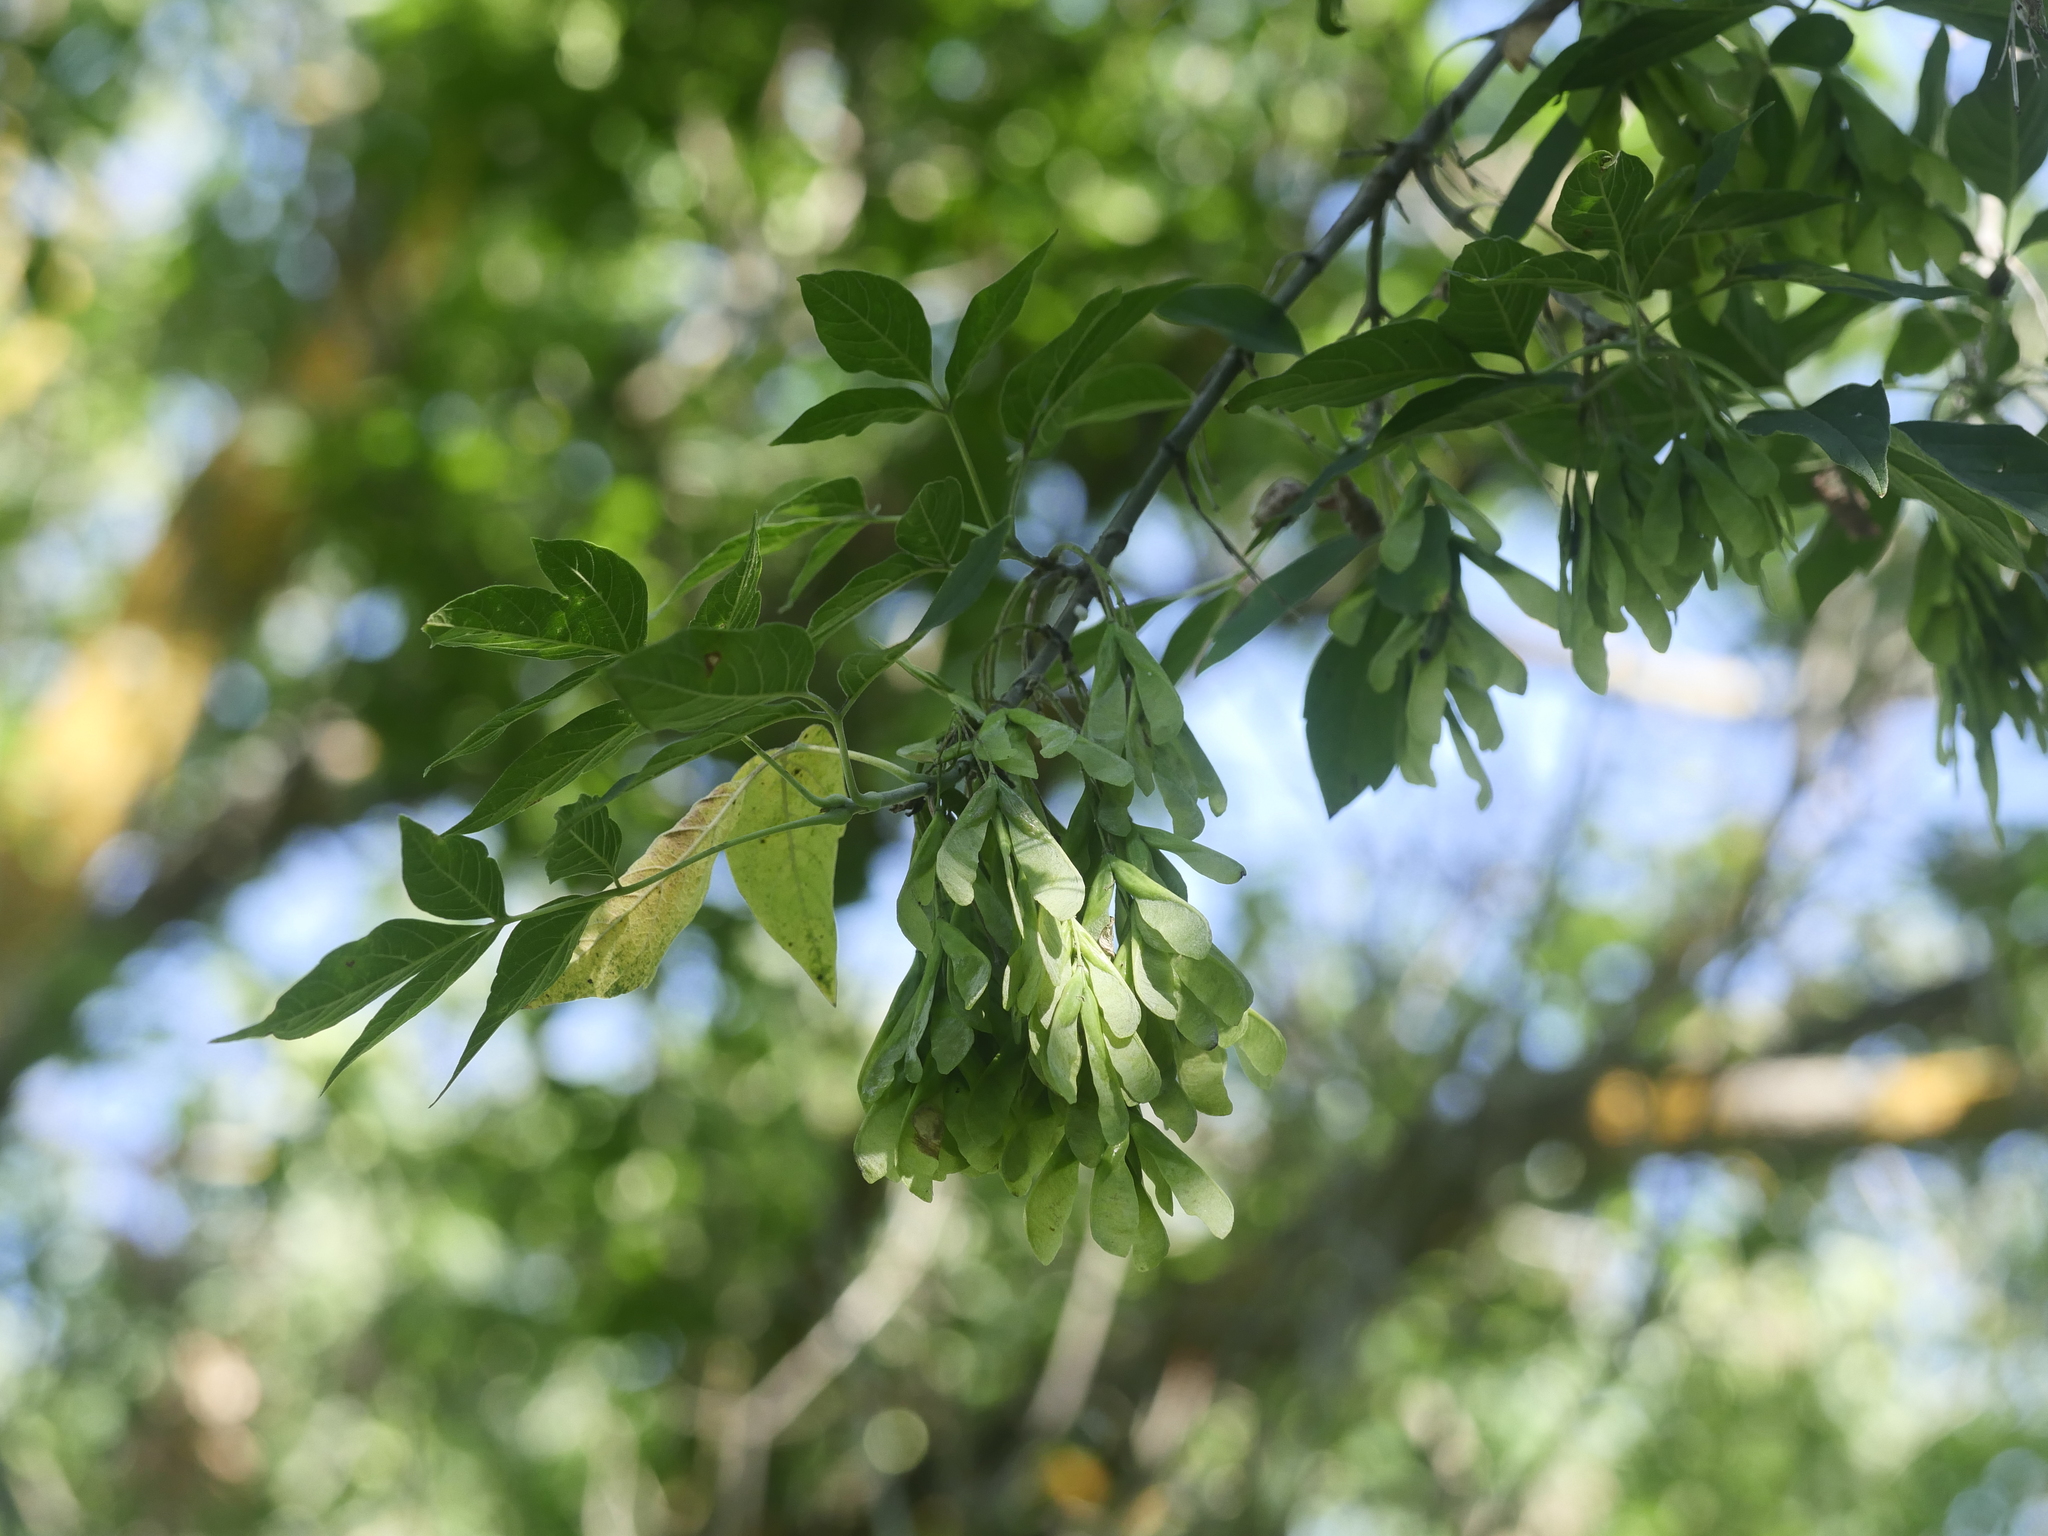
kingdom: Plantae
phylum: Tracheophyta
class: Magnoliopsida
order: Sapindales
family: Sapindaceae
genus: Acer
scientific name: Acer negundo
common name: Ashleaf maple
